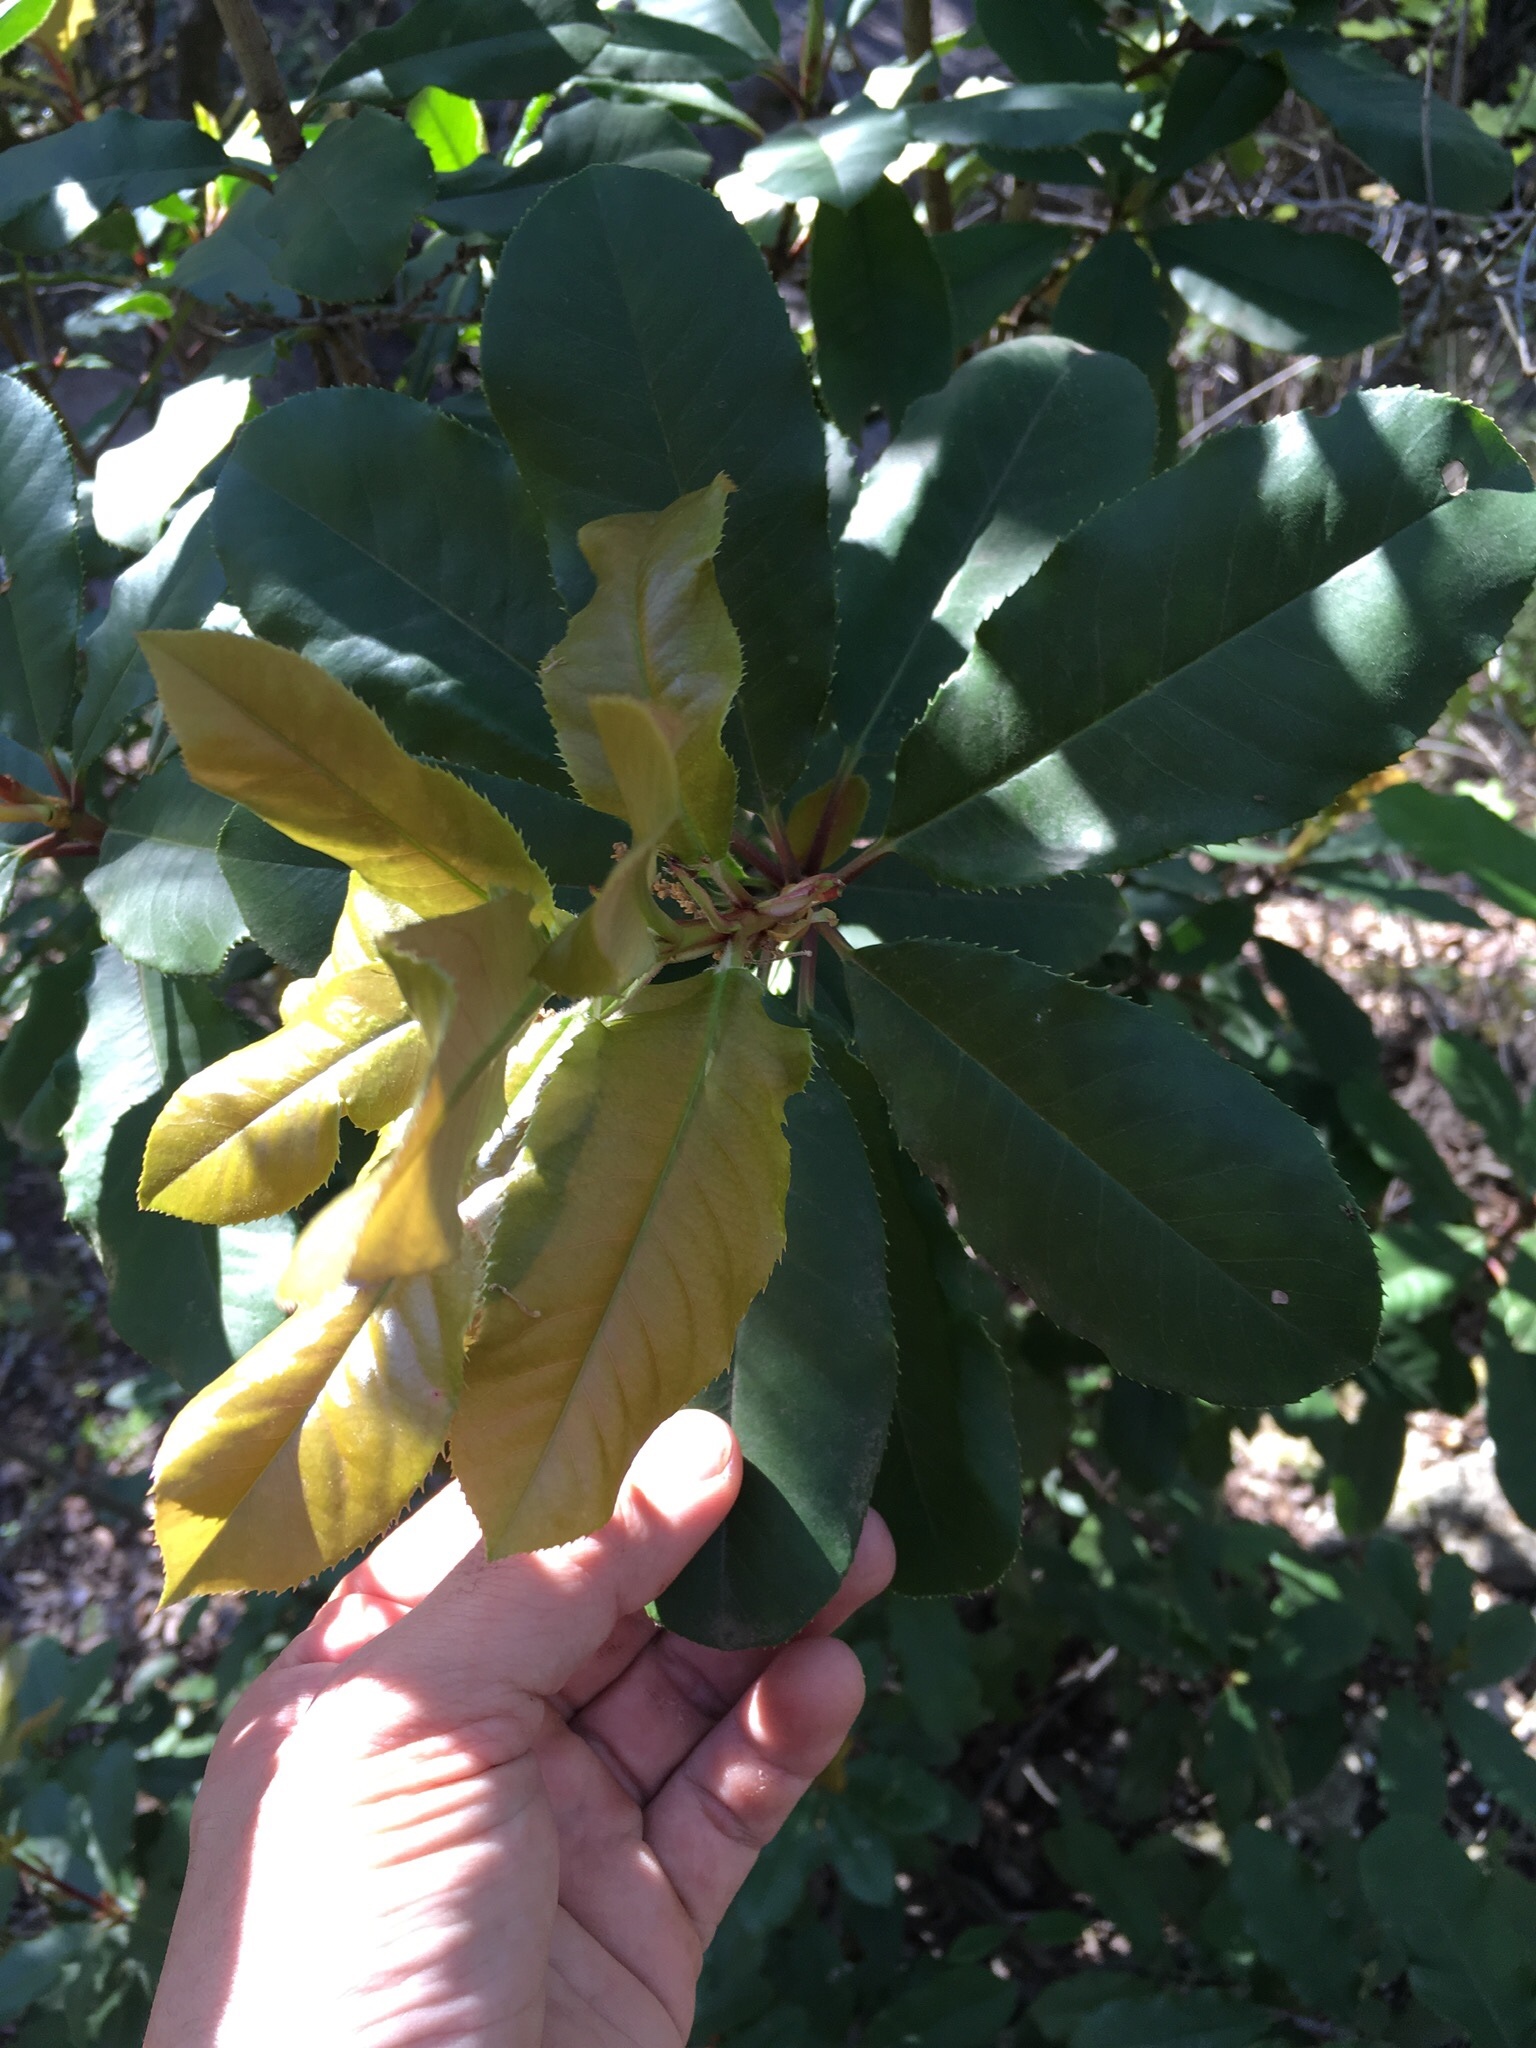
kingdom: Plantae
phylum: Tracheophyta
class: Magnoliopsida
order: Rosales
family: Rosaceae
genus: Photinia
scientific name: Photinia serratifolia
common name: Taiwanese photinia
